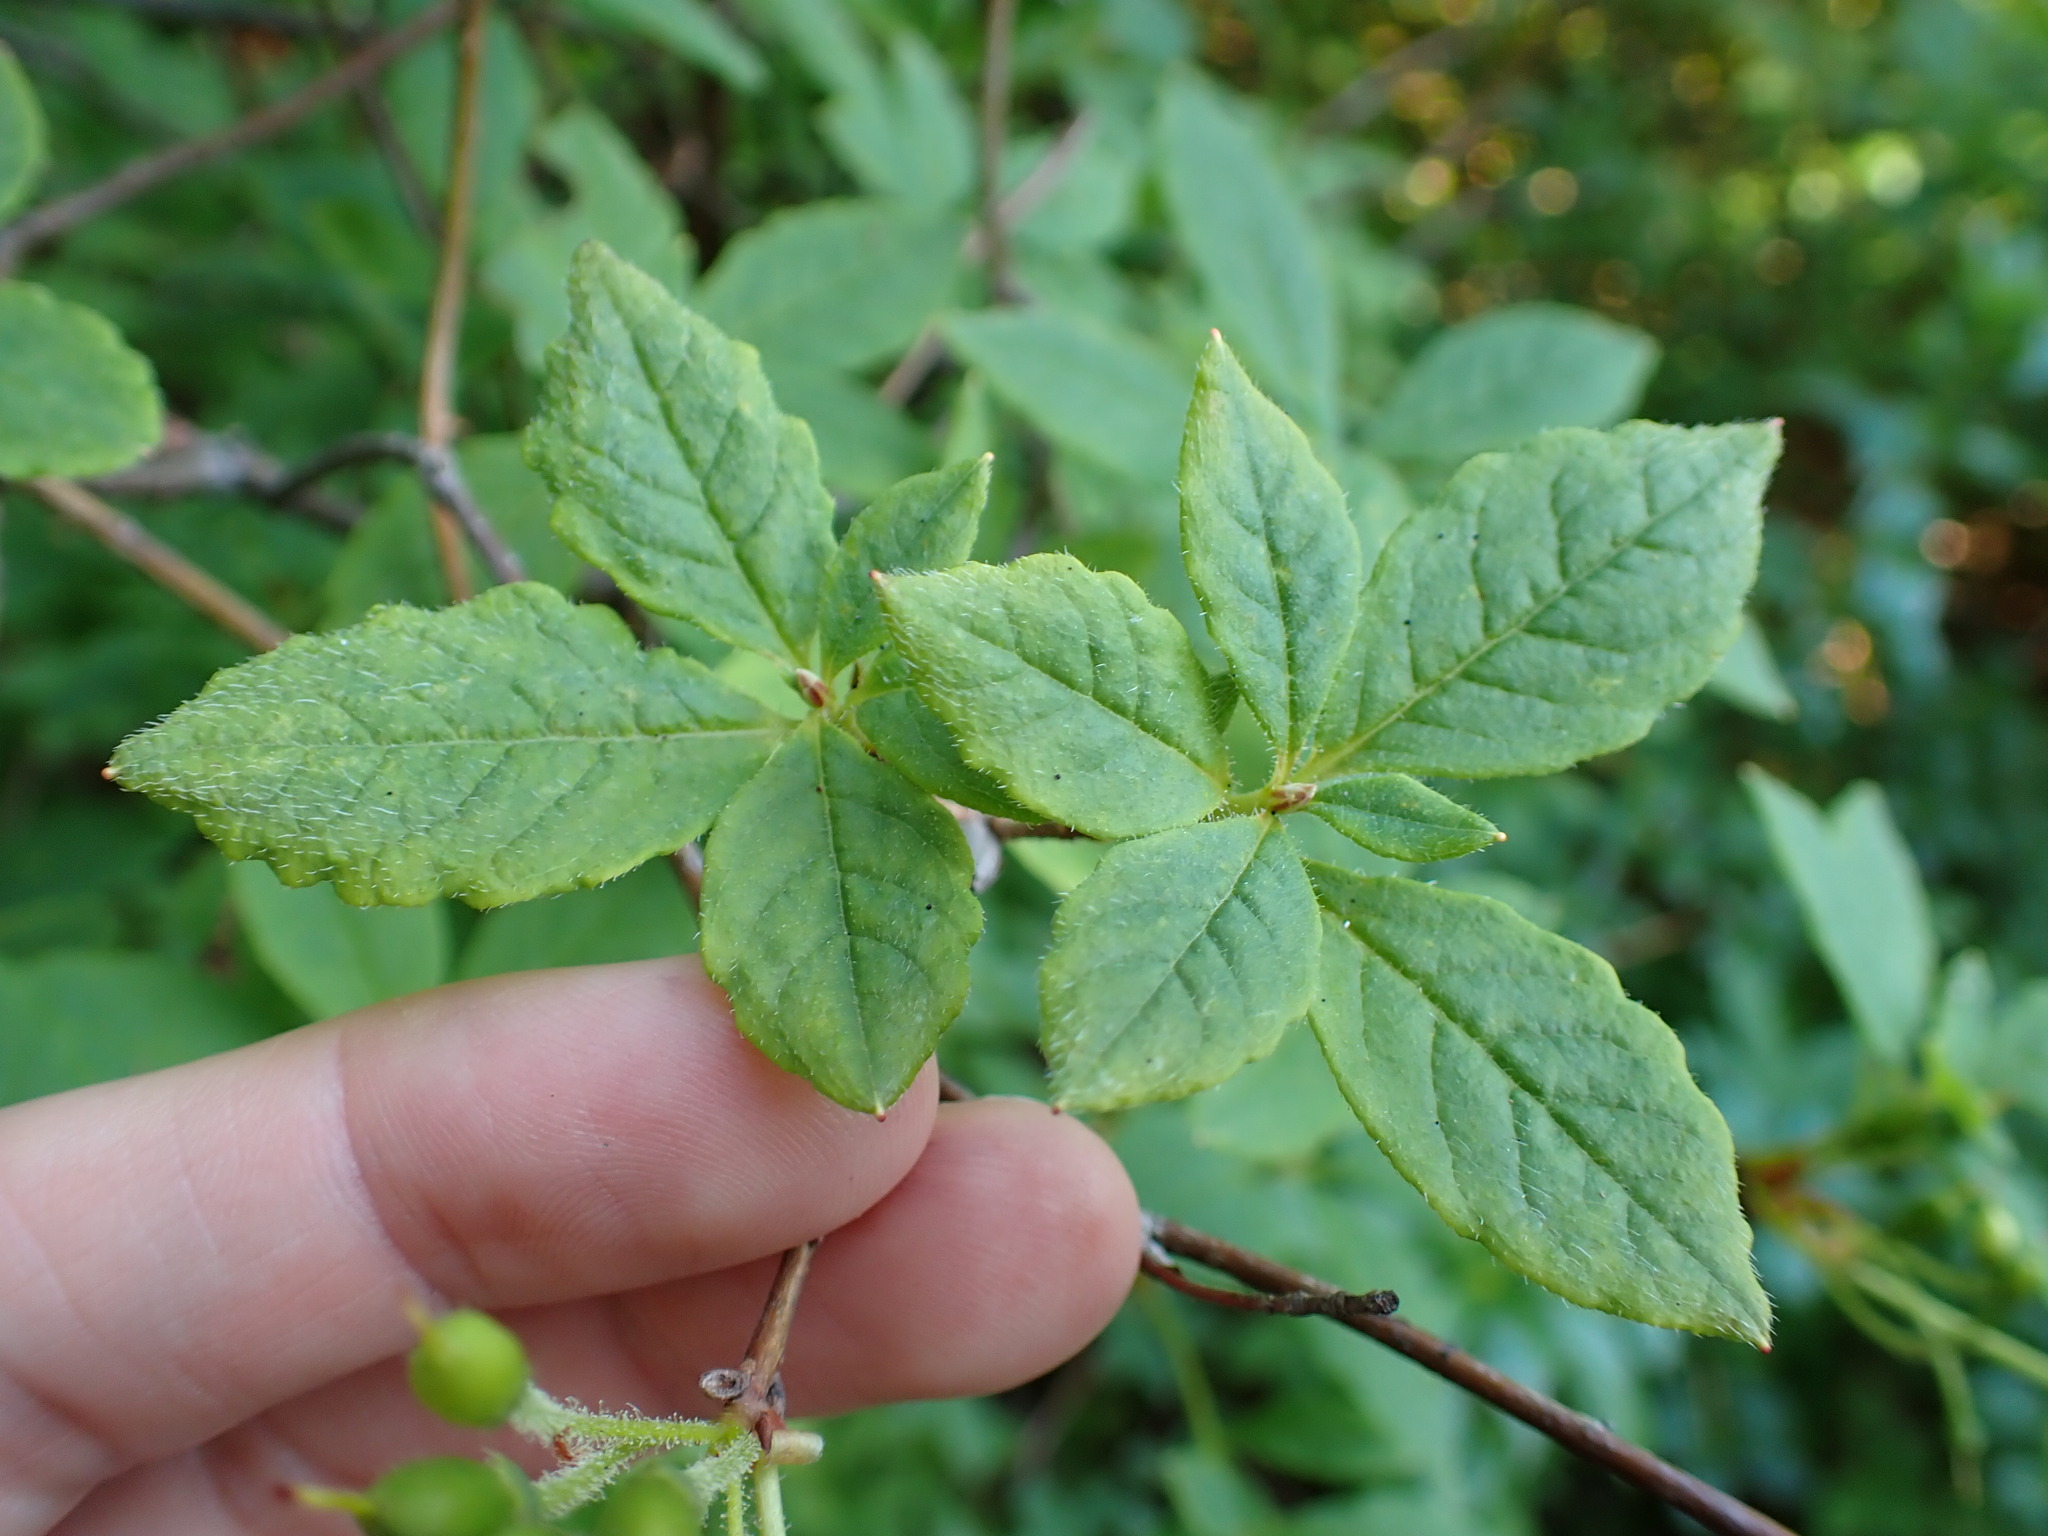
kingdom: Plantae
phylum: Tracheophyta
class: Magnoliopsida
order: Ericales
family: Ericaceae
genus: Rhododendron
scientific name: Rhododendron menziesii
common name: Pacific menziesia
